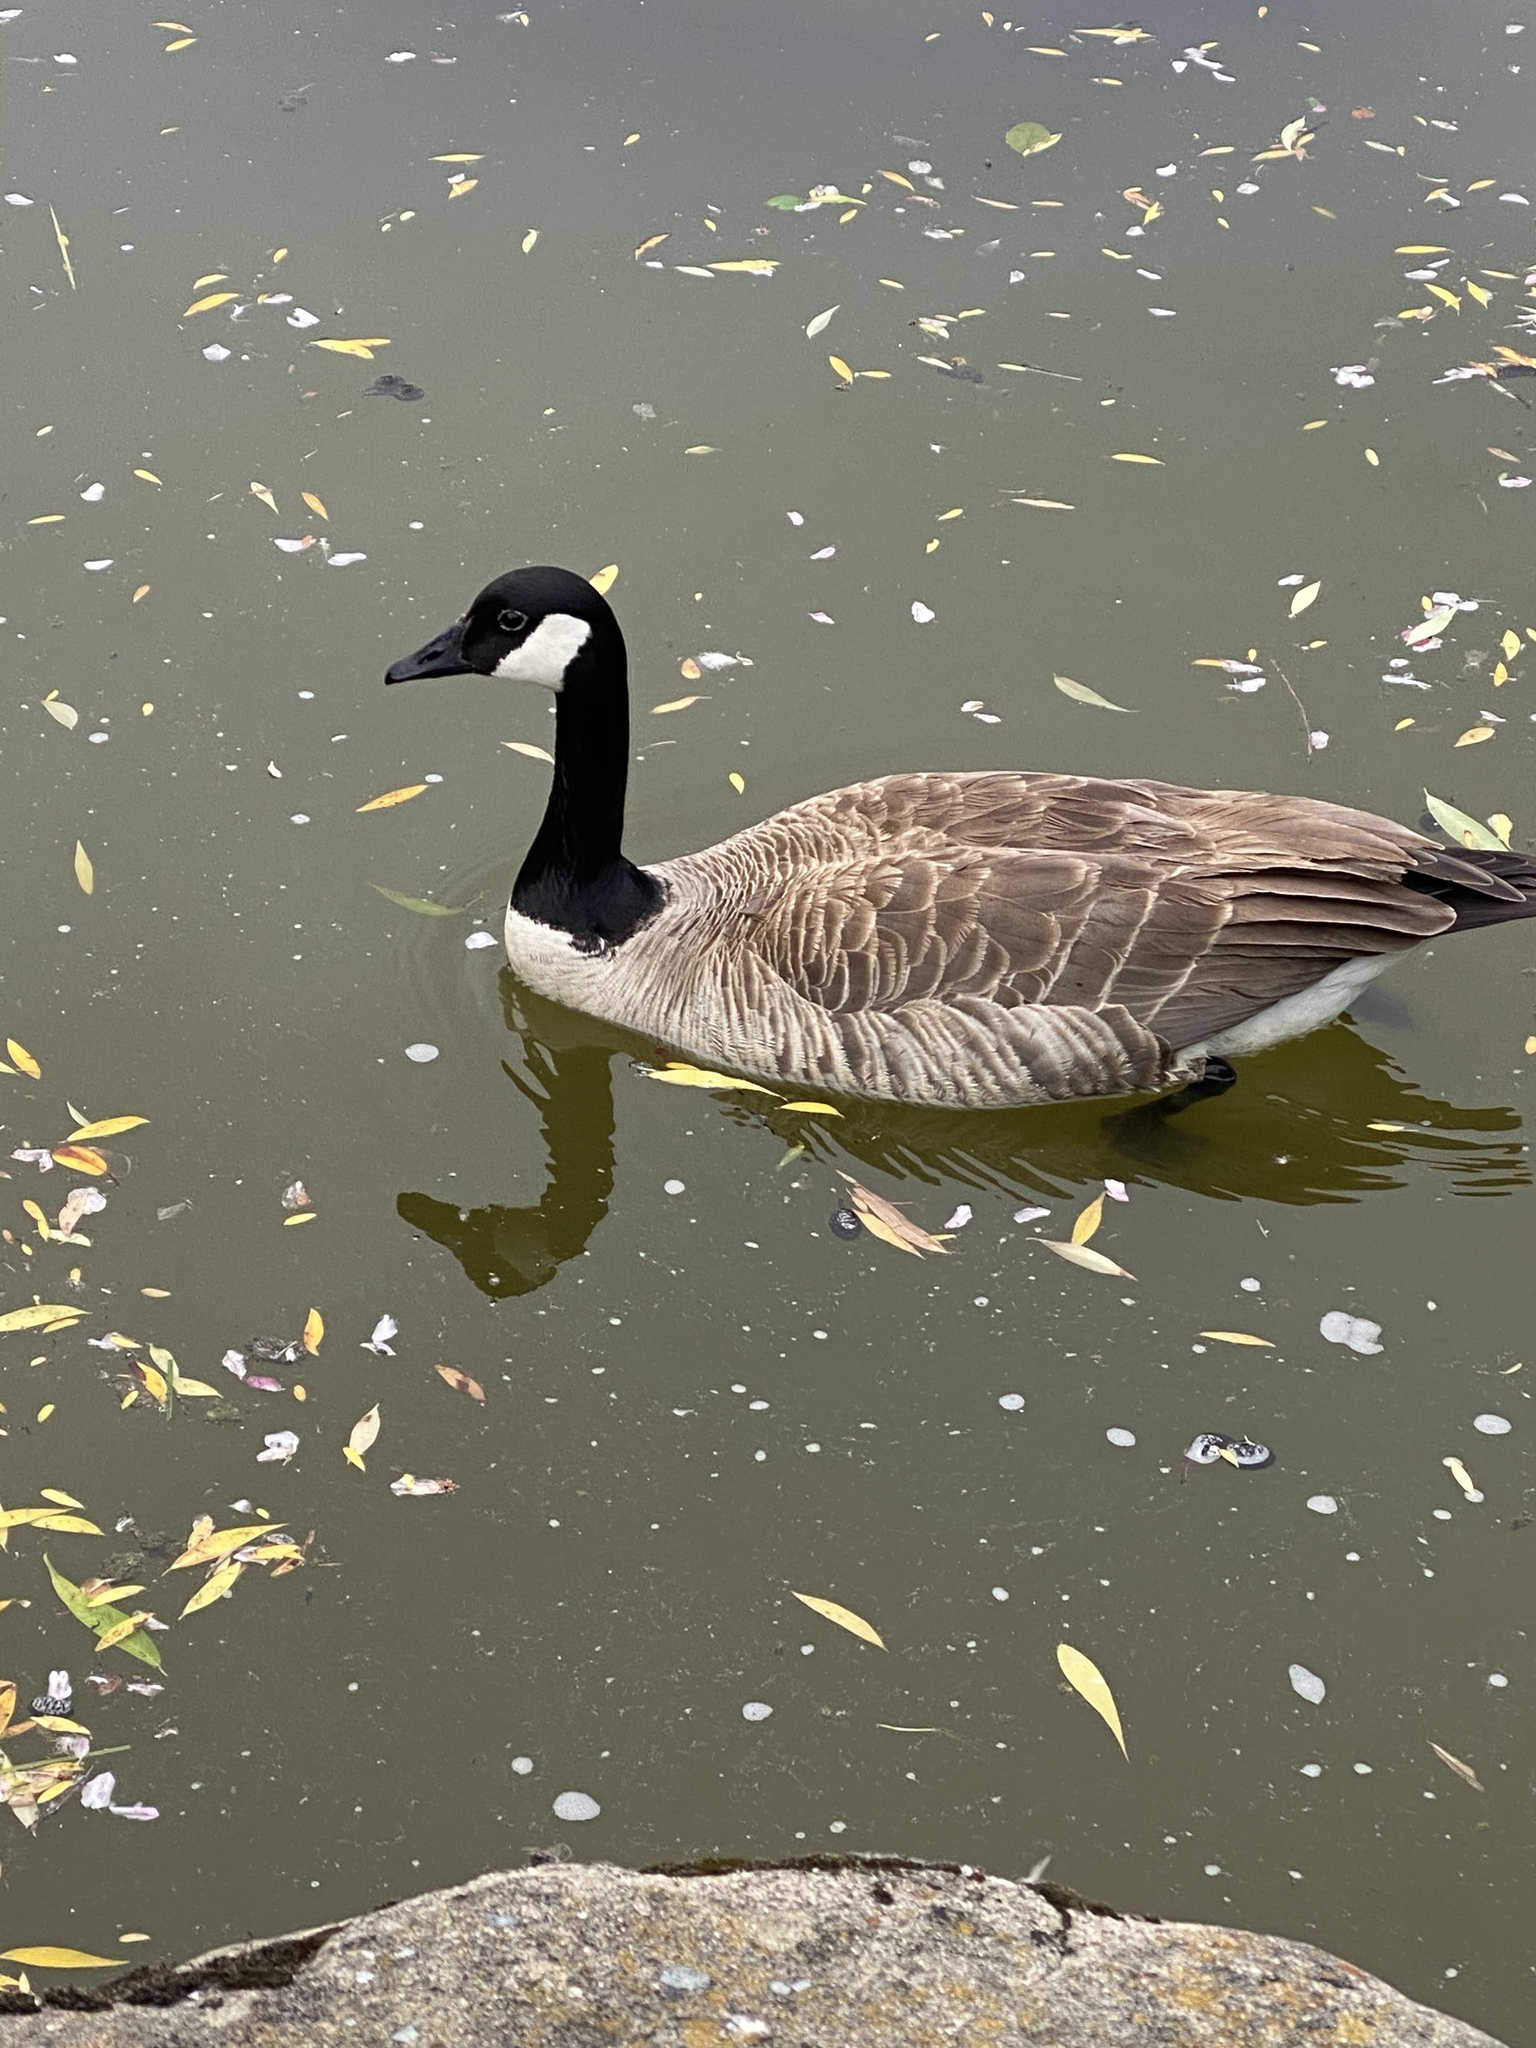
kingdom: Animalia
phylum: Chordata
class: Aves
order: Anseriformes
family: Anatidae
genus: Branta
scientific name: Branta canadensis
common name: Canada goose
